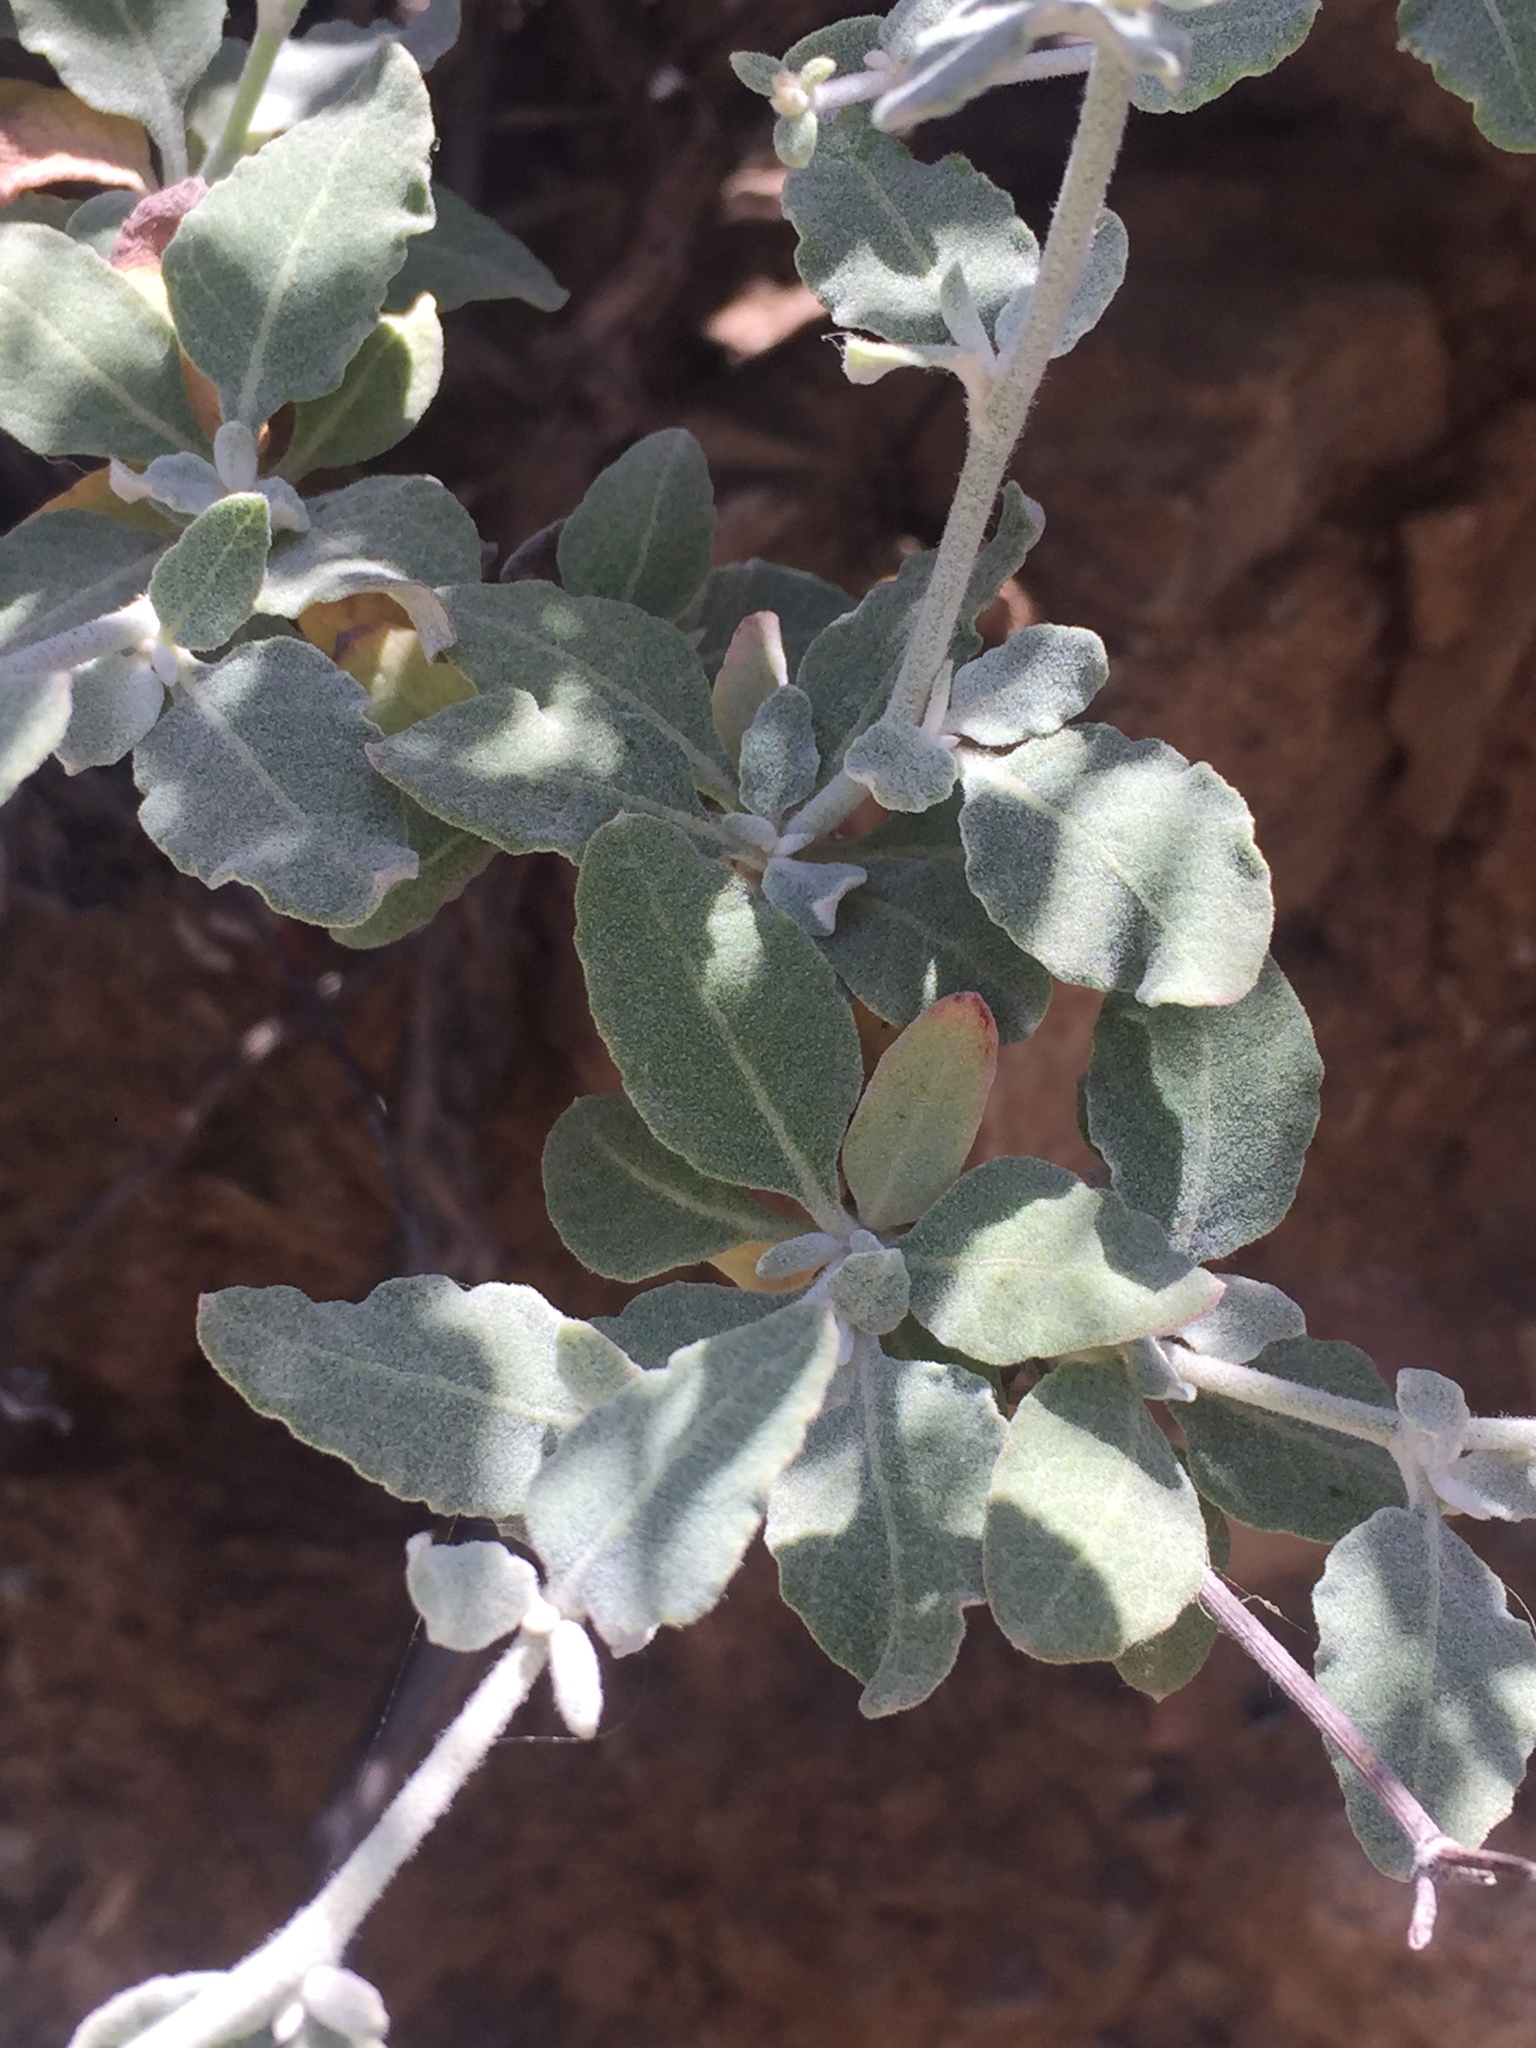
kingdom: Plantae
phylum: Tracheophyta
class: Magnoliopsida
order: Caryophyllales
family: Polygonaceae
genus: Eriogonum
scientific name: Eriogonum cinereum
